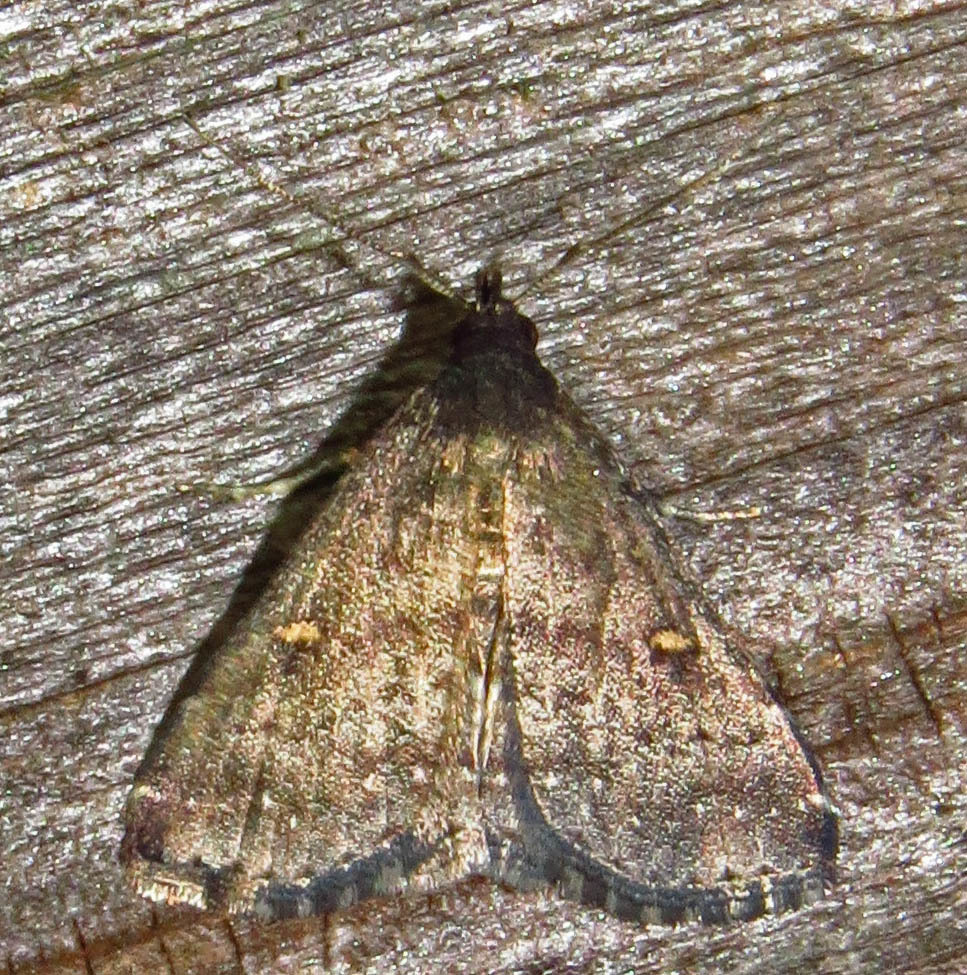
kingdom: Animalia
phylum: Arthropoda
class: Insecta
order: Lepidoptera
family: Erebidae
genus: Tetanolita
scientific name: Tetanolita mynesalis
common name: Smoky tetanolita moth
